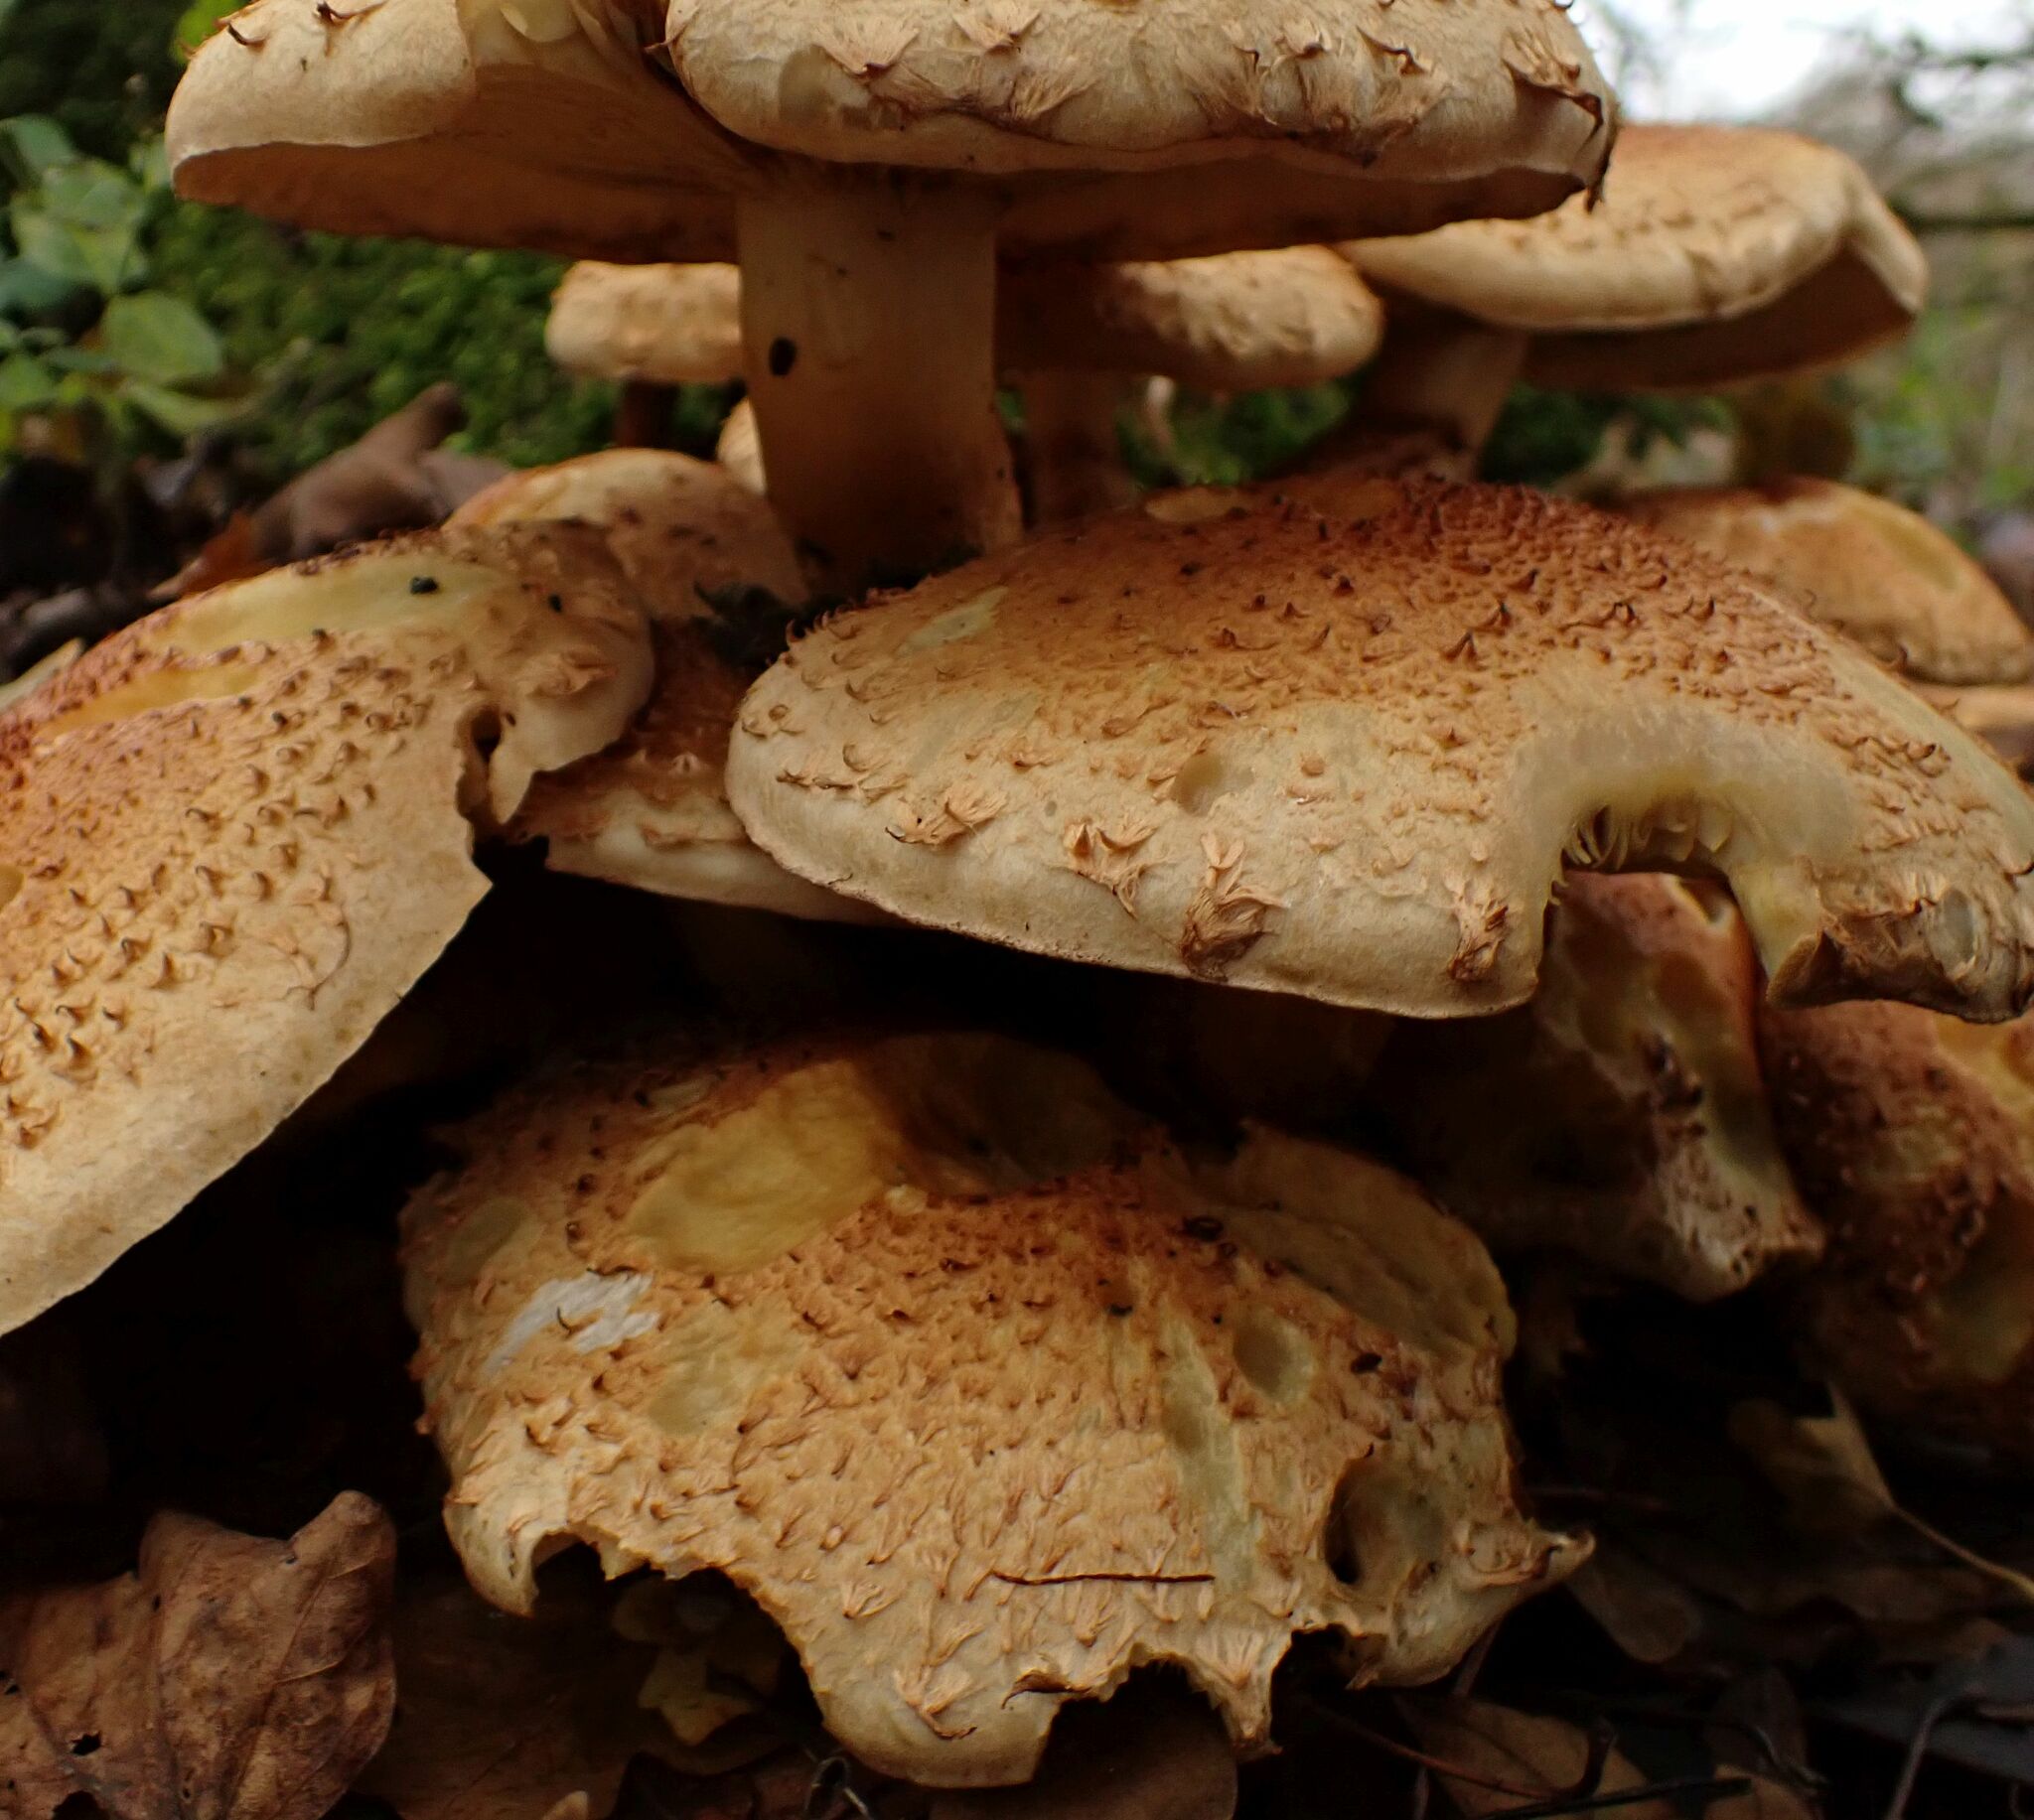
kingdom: Fungi
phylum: Basidiomycota
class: Agaricomycetes
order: Agaricales
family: Strophariaceae
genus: Pholiota
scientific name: Pholiota squarrosa
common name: Shaggy pholiota
